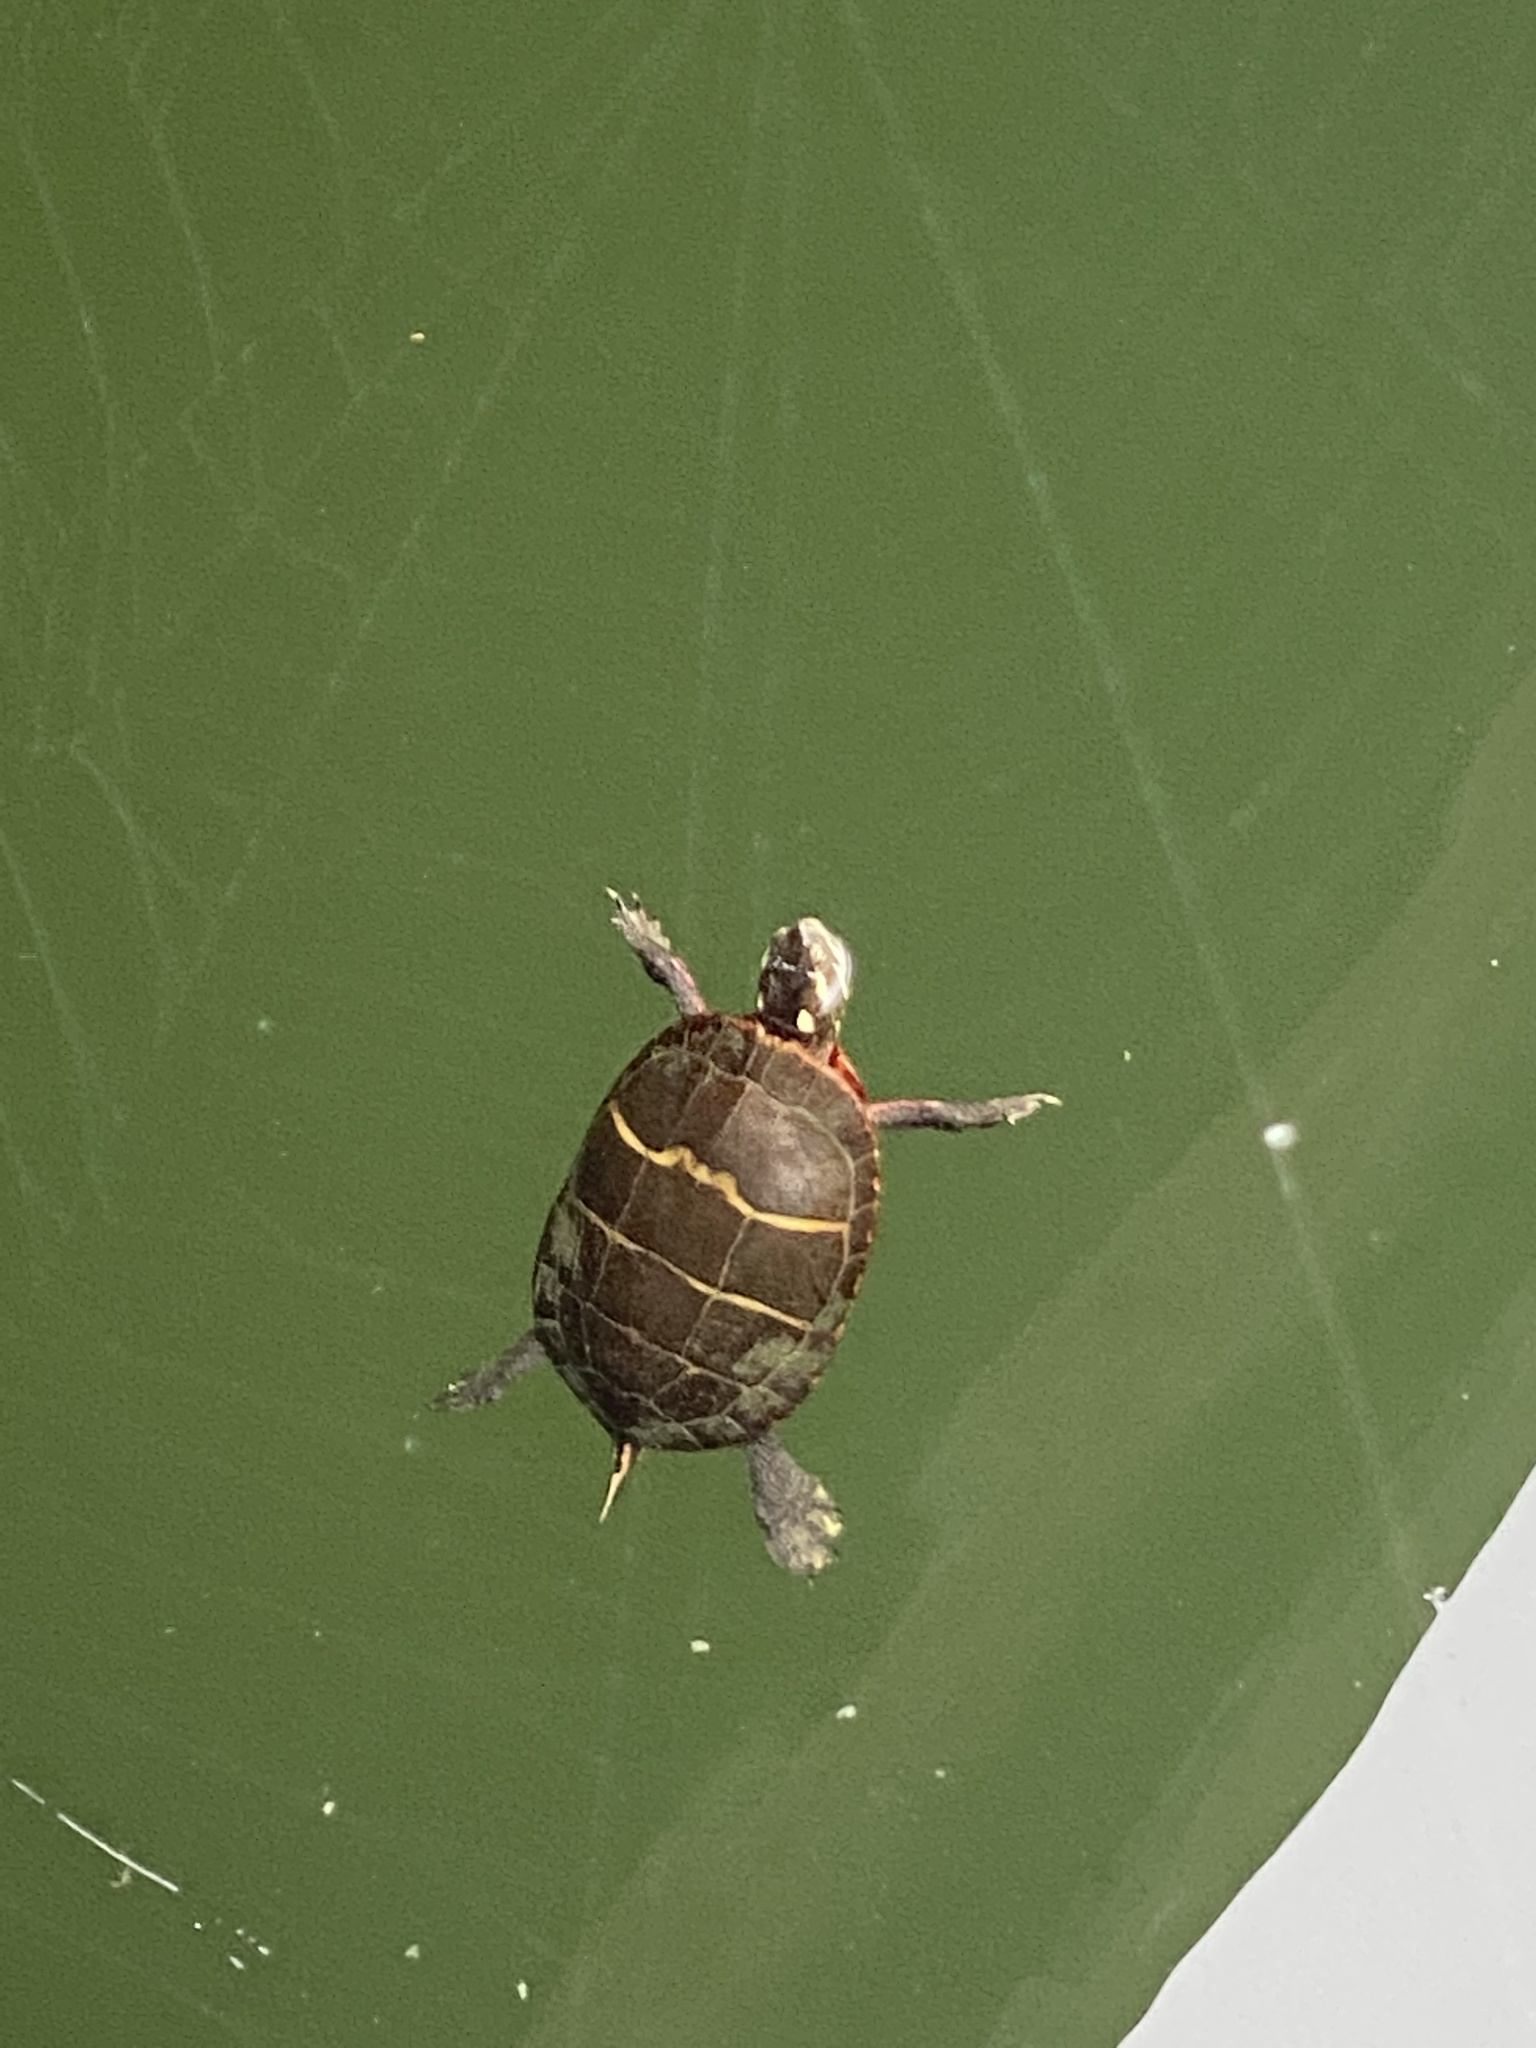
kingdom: Animalia
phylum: Chordata
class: Testudines
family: Emydidae
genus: Chrysemys
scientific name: Chrysemys picta
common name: Painted turtle
